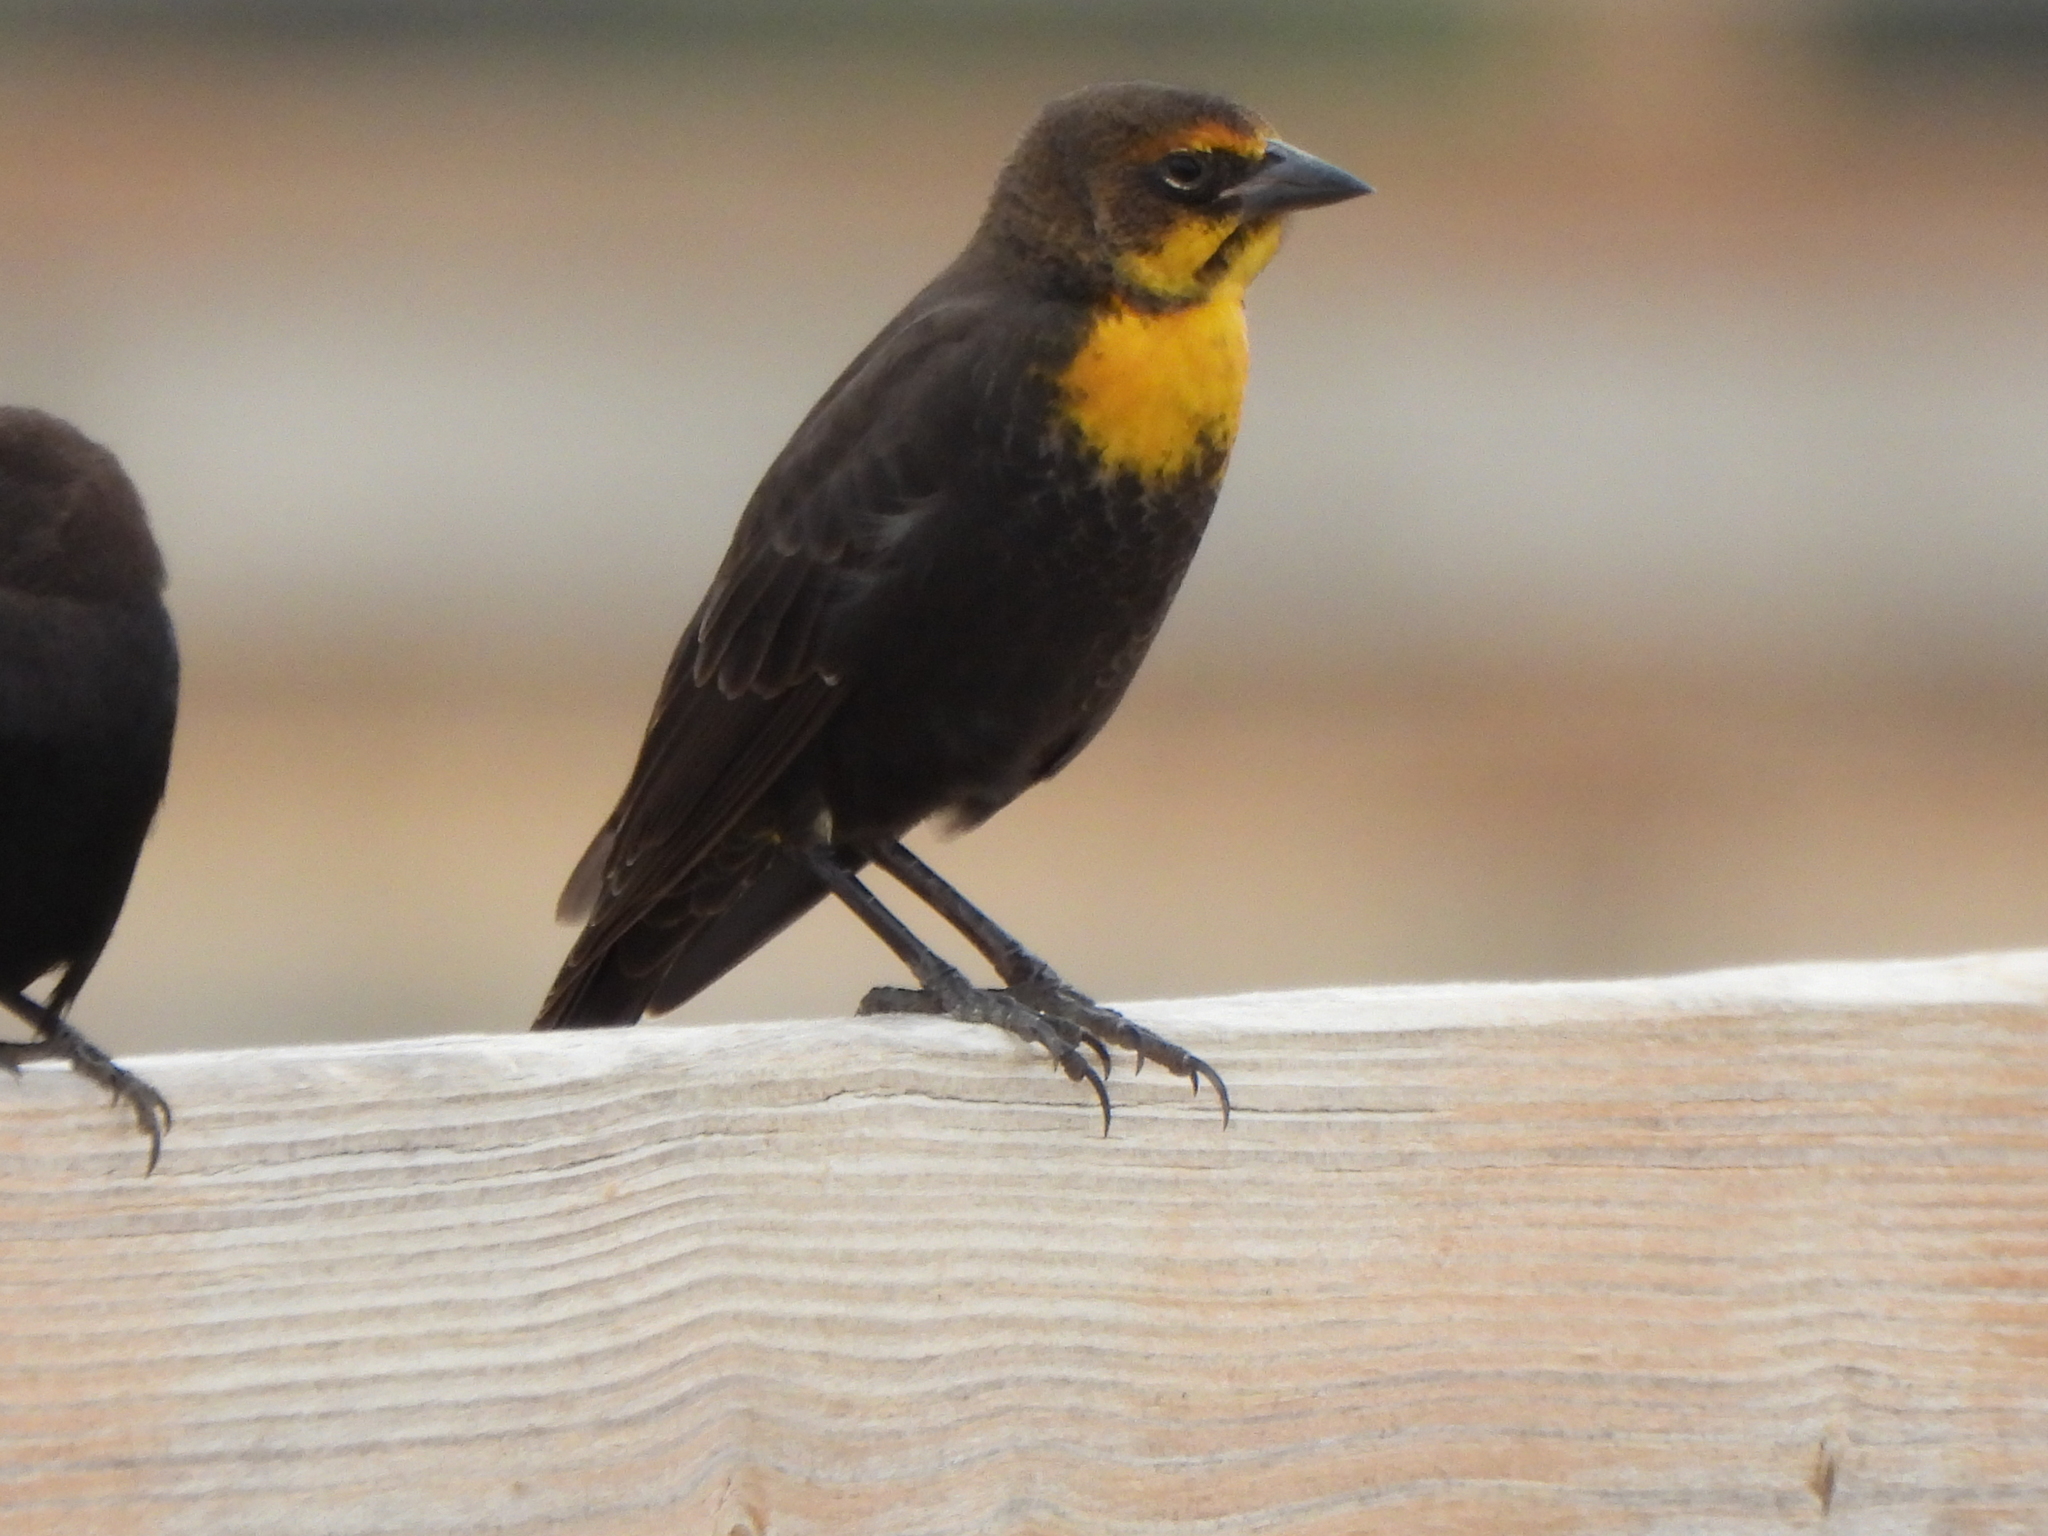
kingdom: Animalia
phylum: Chordata
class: Aves
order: Passeriformes
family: Icteridae
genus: Xanthocephalus
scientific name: Xanthocephalus xanthocephalus
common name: Yellow-headed blackbird
